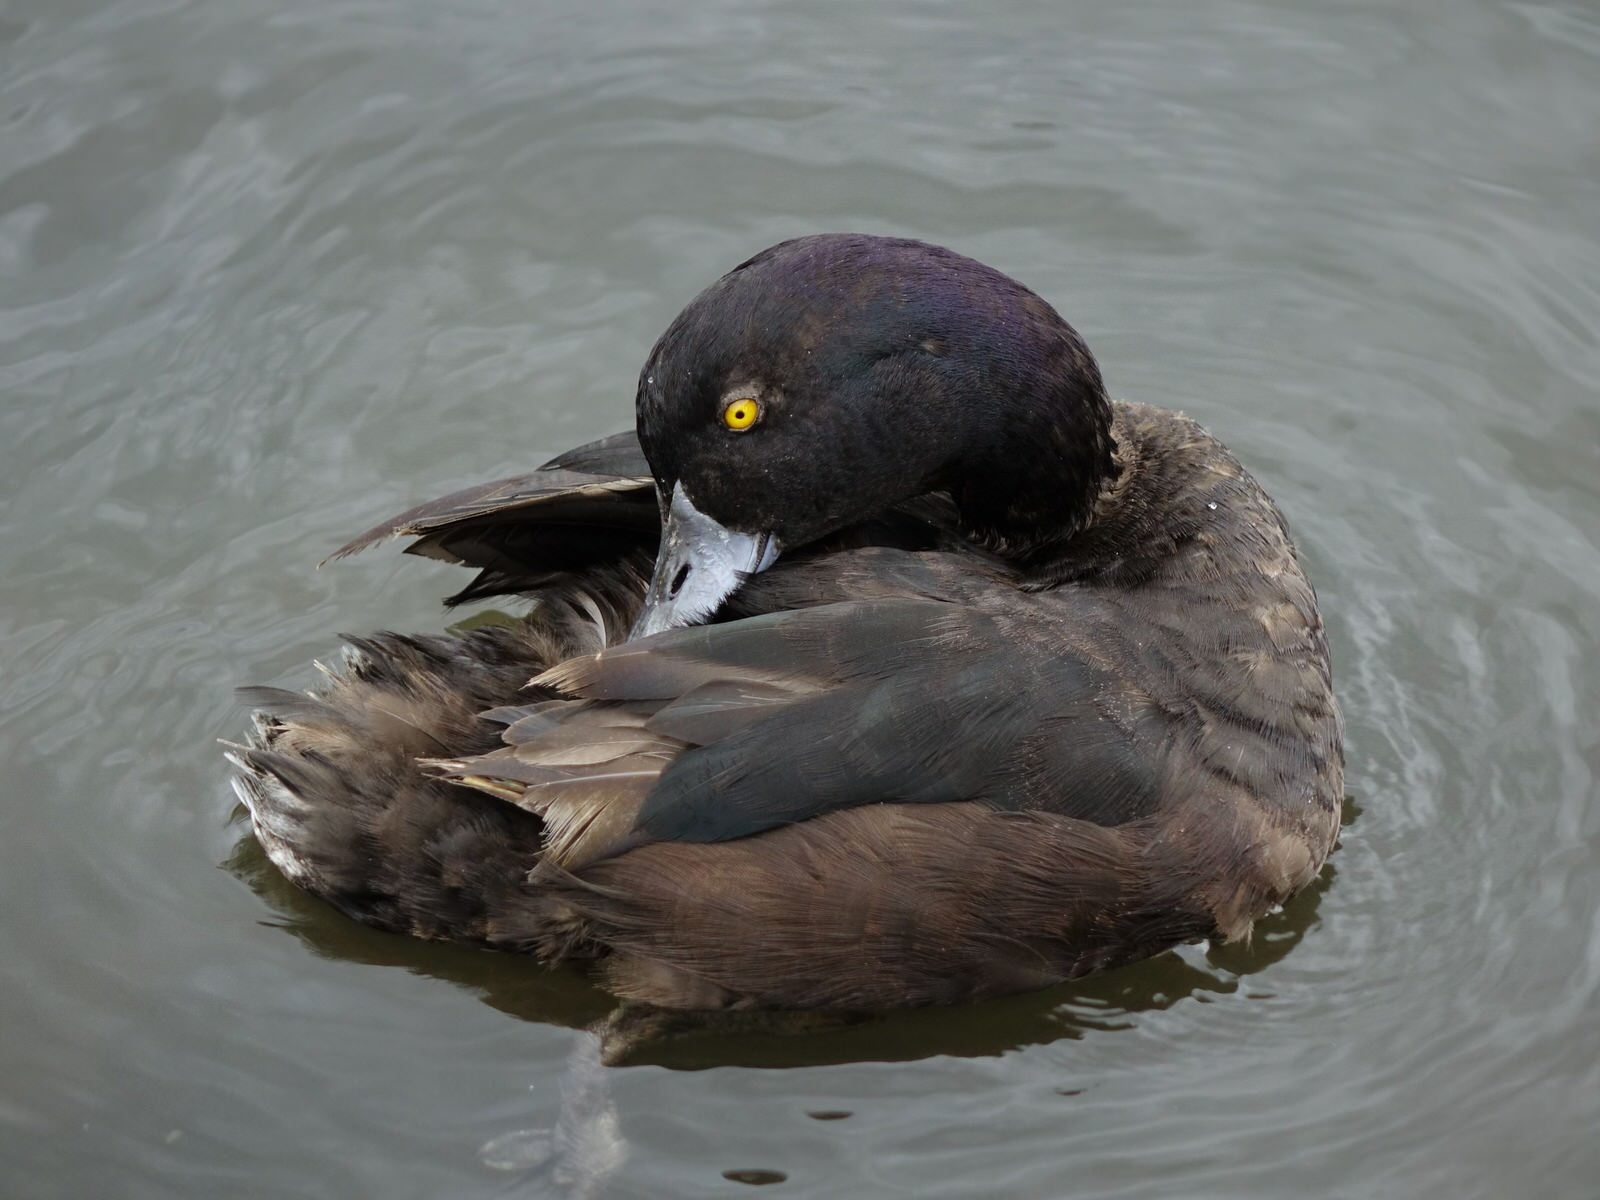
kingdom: Animalia
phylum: Chordata
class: Aves
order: Anseriformes
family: Anatidae
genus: Aythya
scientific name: Aythya novaeseelandiae
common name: New zealand scaup
